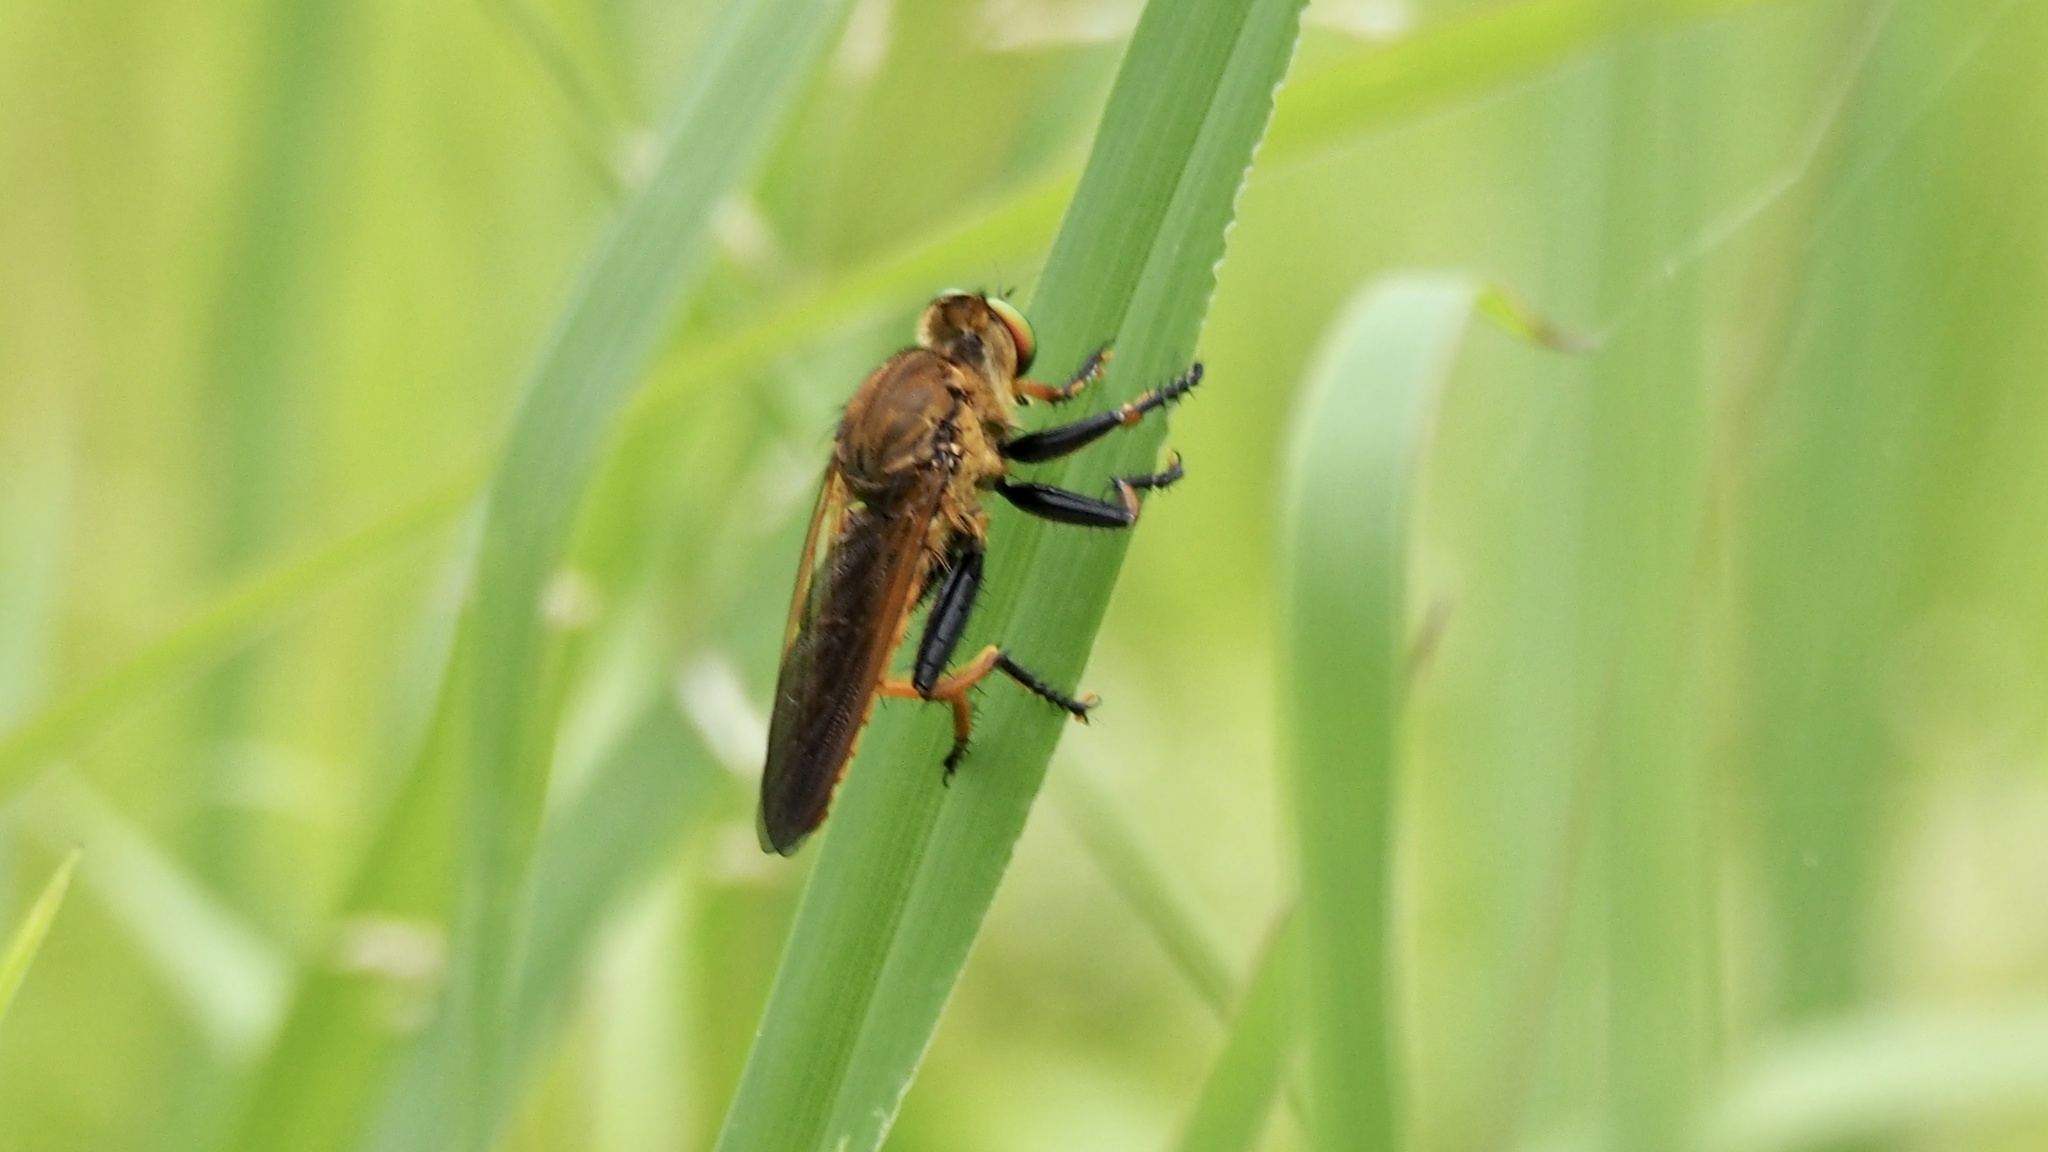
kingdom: Animalia
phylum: Arthropoda
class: Insecta
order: Diptera
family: Asilidae
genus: Cophinopoda
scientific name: Cophinopoda chinensis
